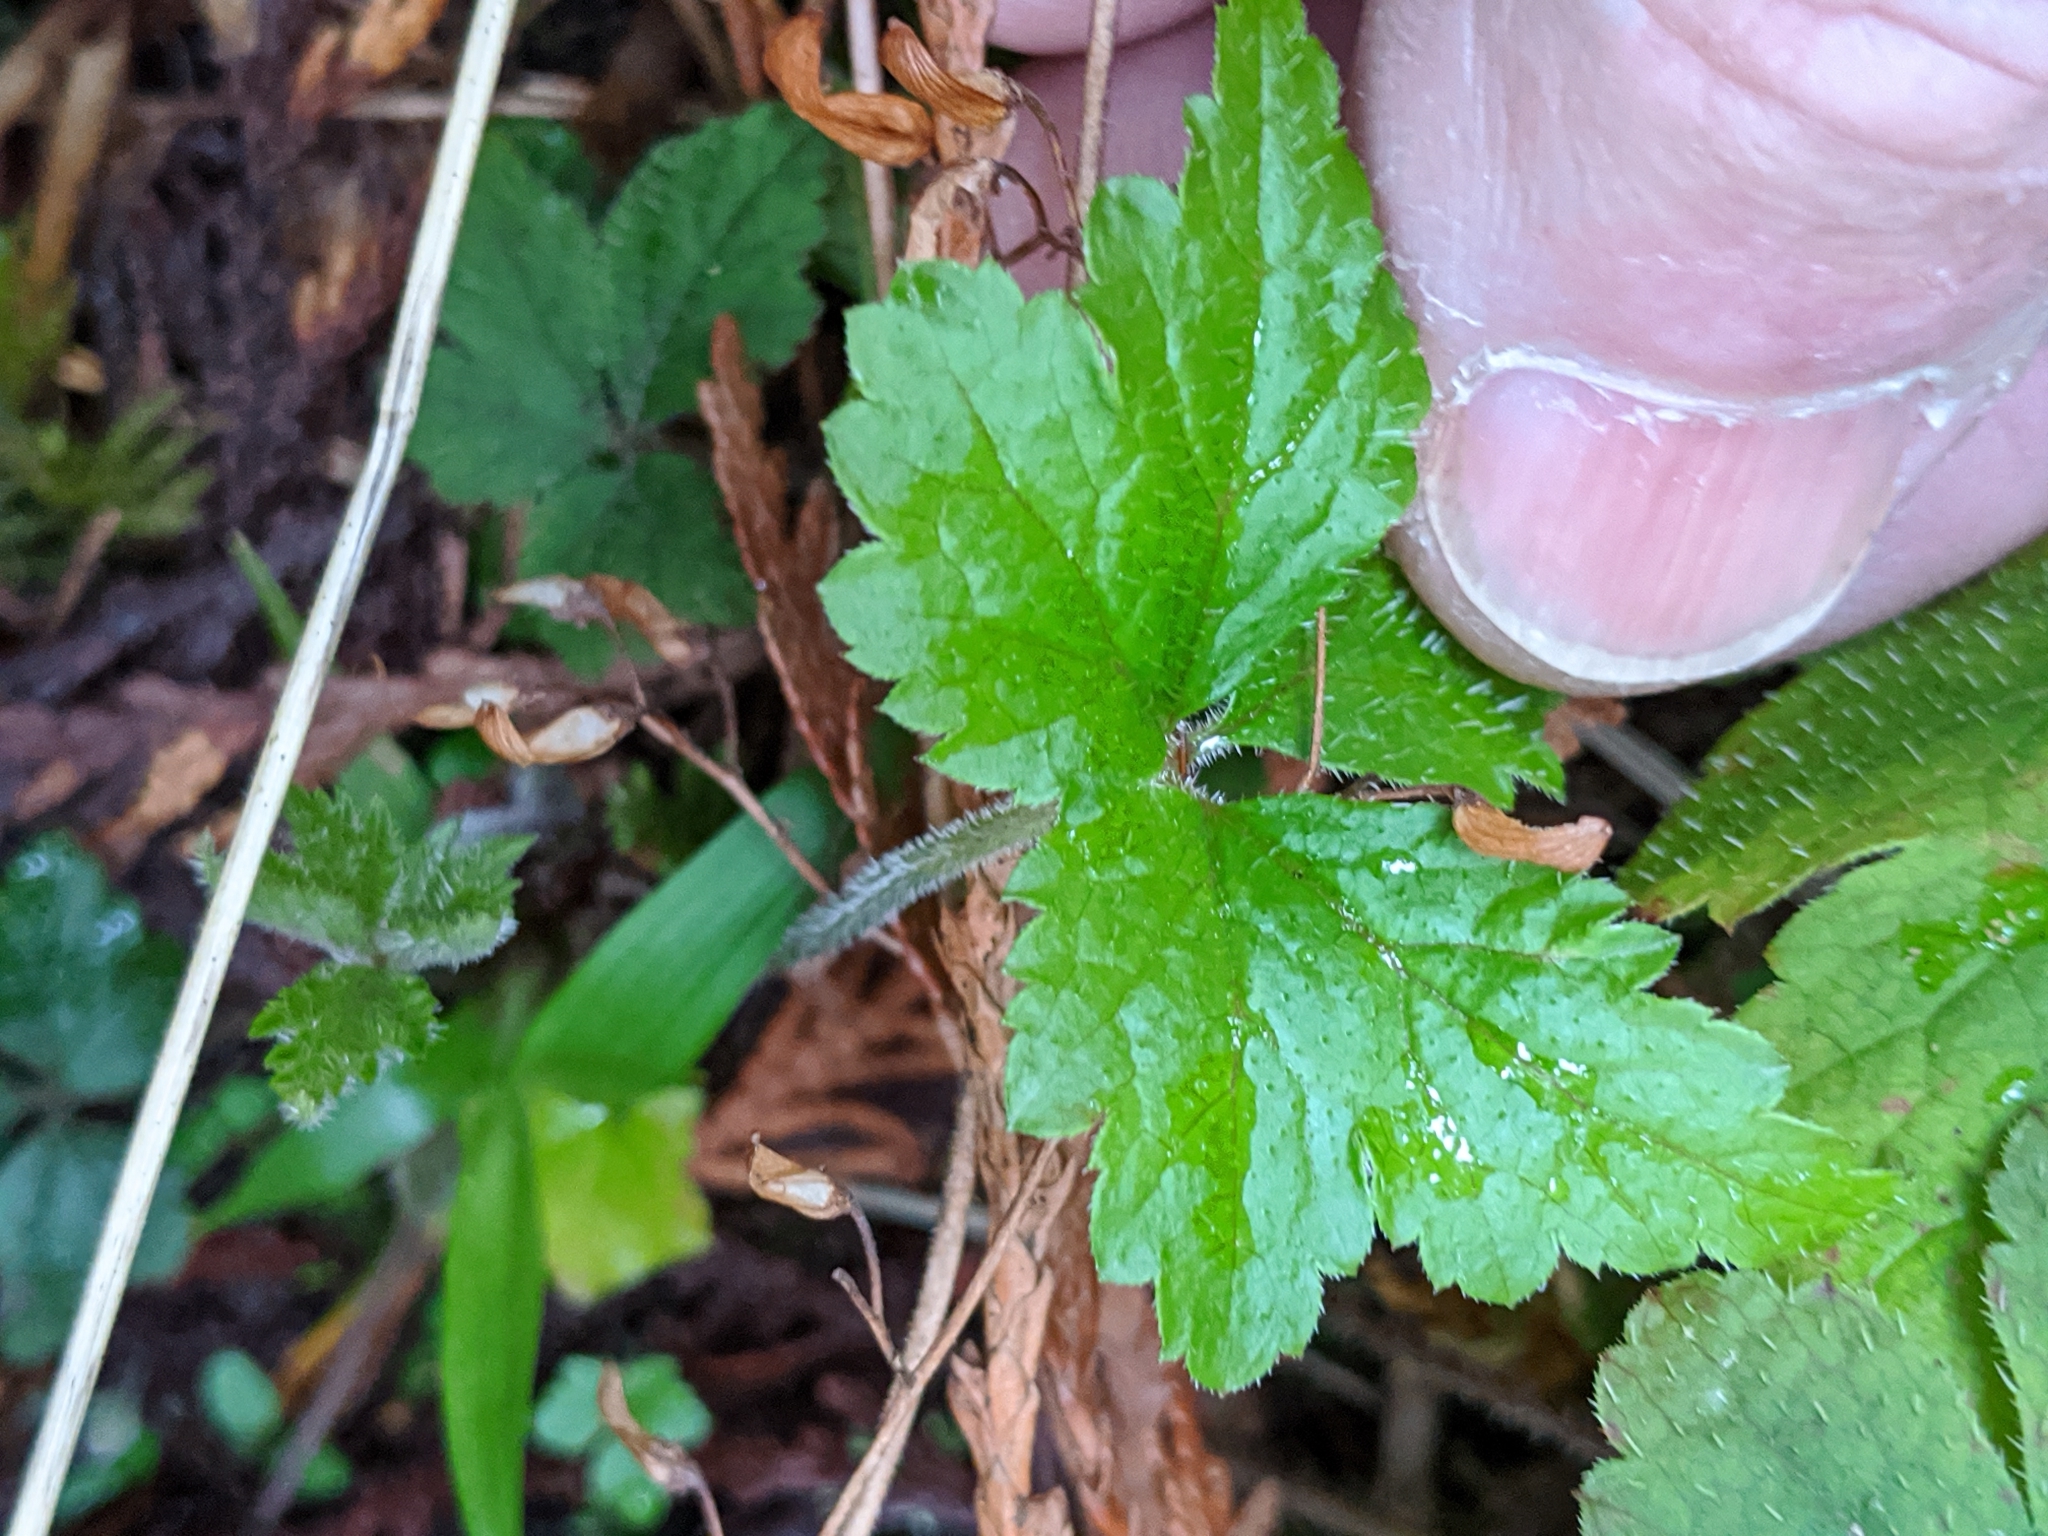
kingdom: Plantae
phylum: Tracheophyta
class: Magnoliopsida
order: Saxifragales
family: Saxifragaceae
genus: Tiarella
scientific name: Tiarella trifoliata
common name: Sugar-scoop
